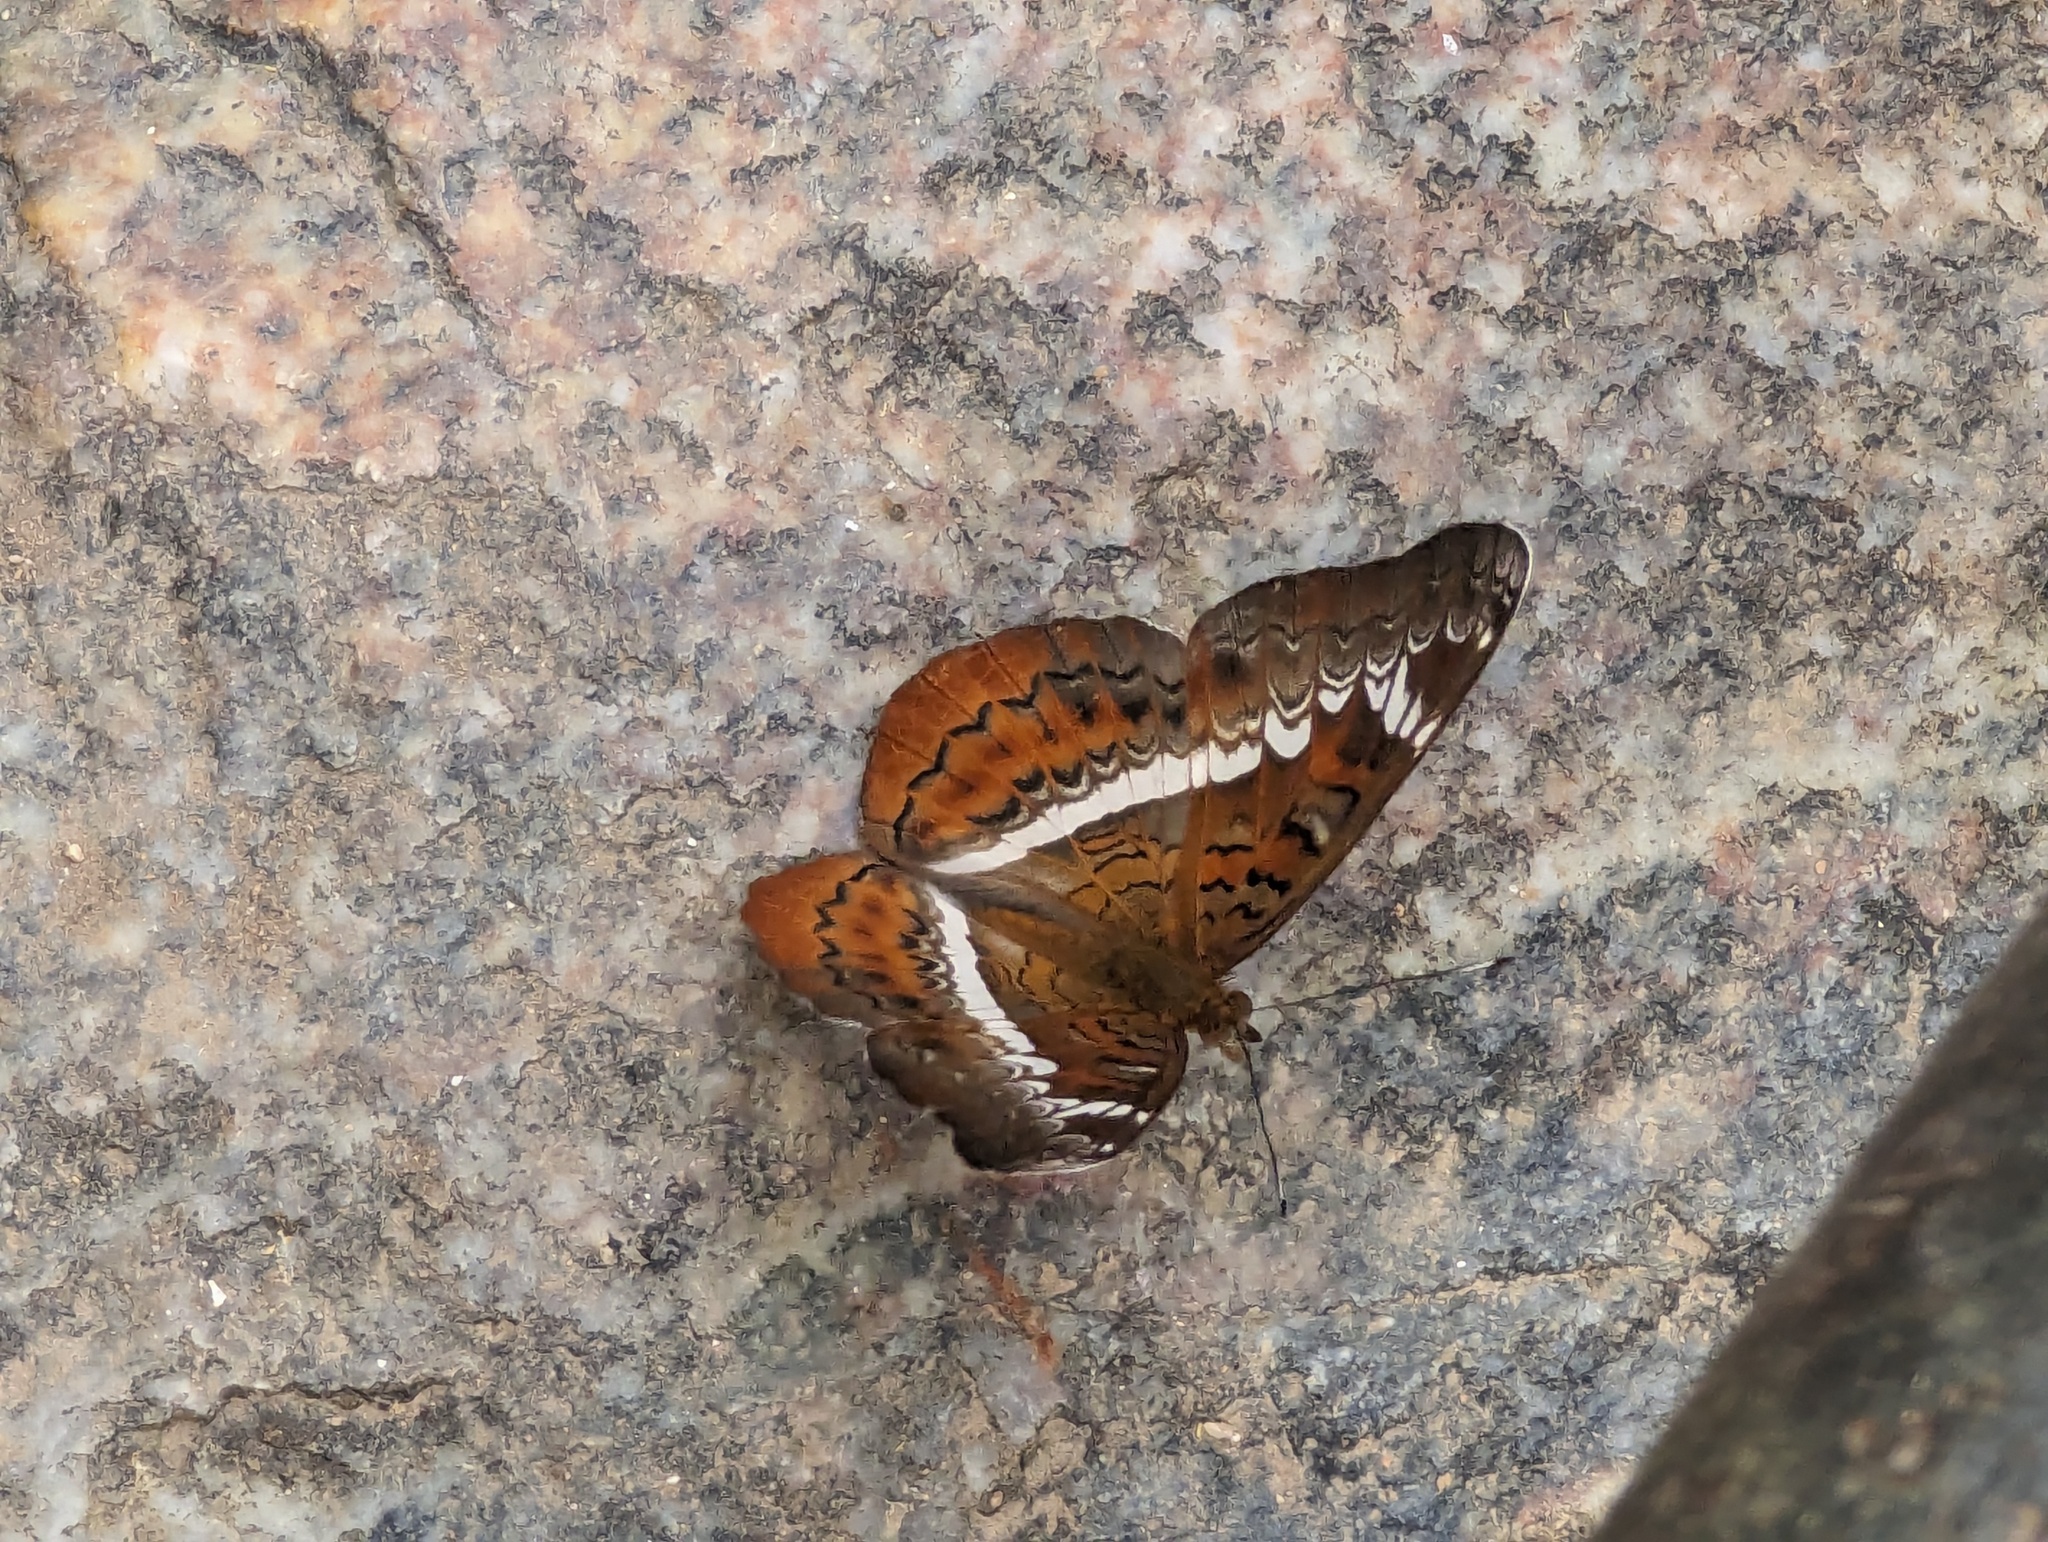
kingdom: Animalia
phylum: Arthropoda
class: Insecta
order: Lepidoptera
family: Nymphalidae
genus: Lebadea
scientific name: Lebadea martha
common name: Knight
